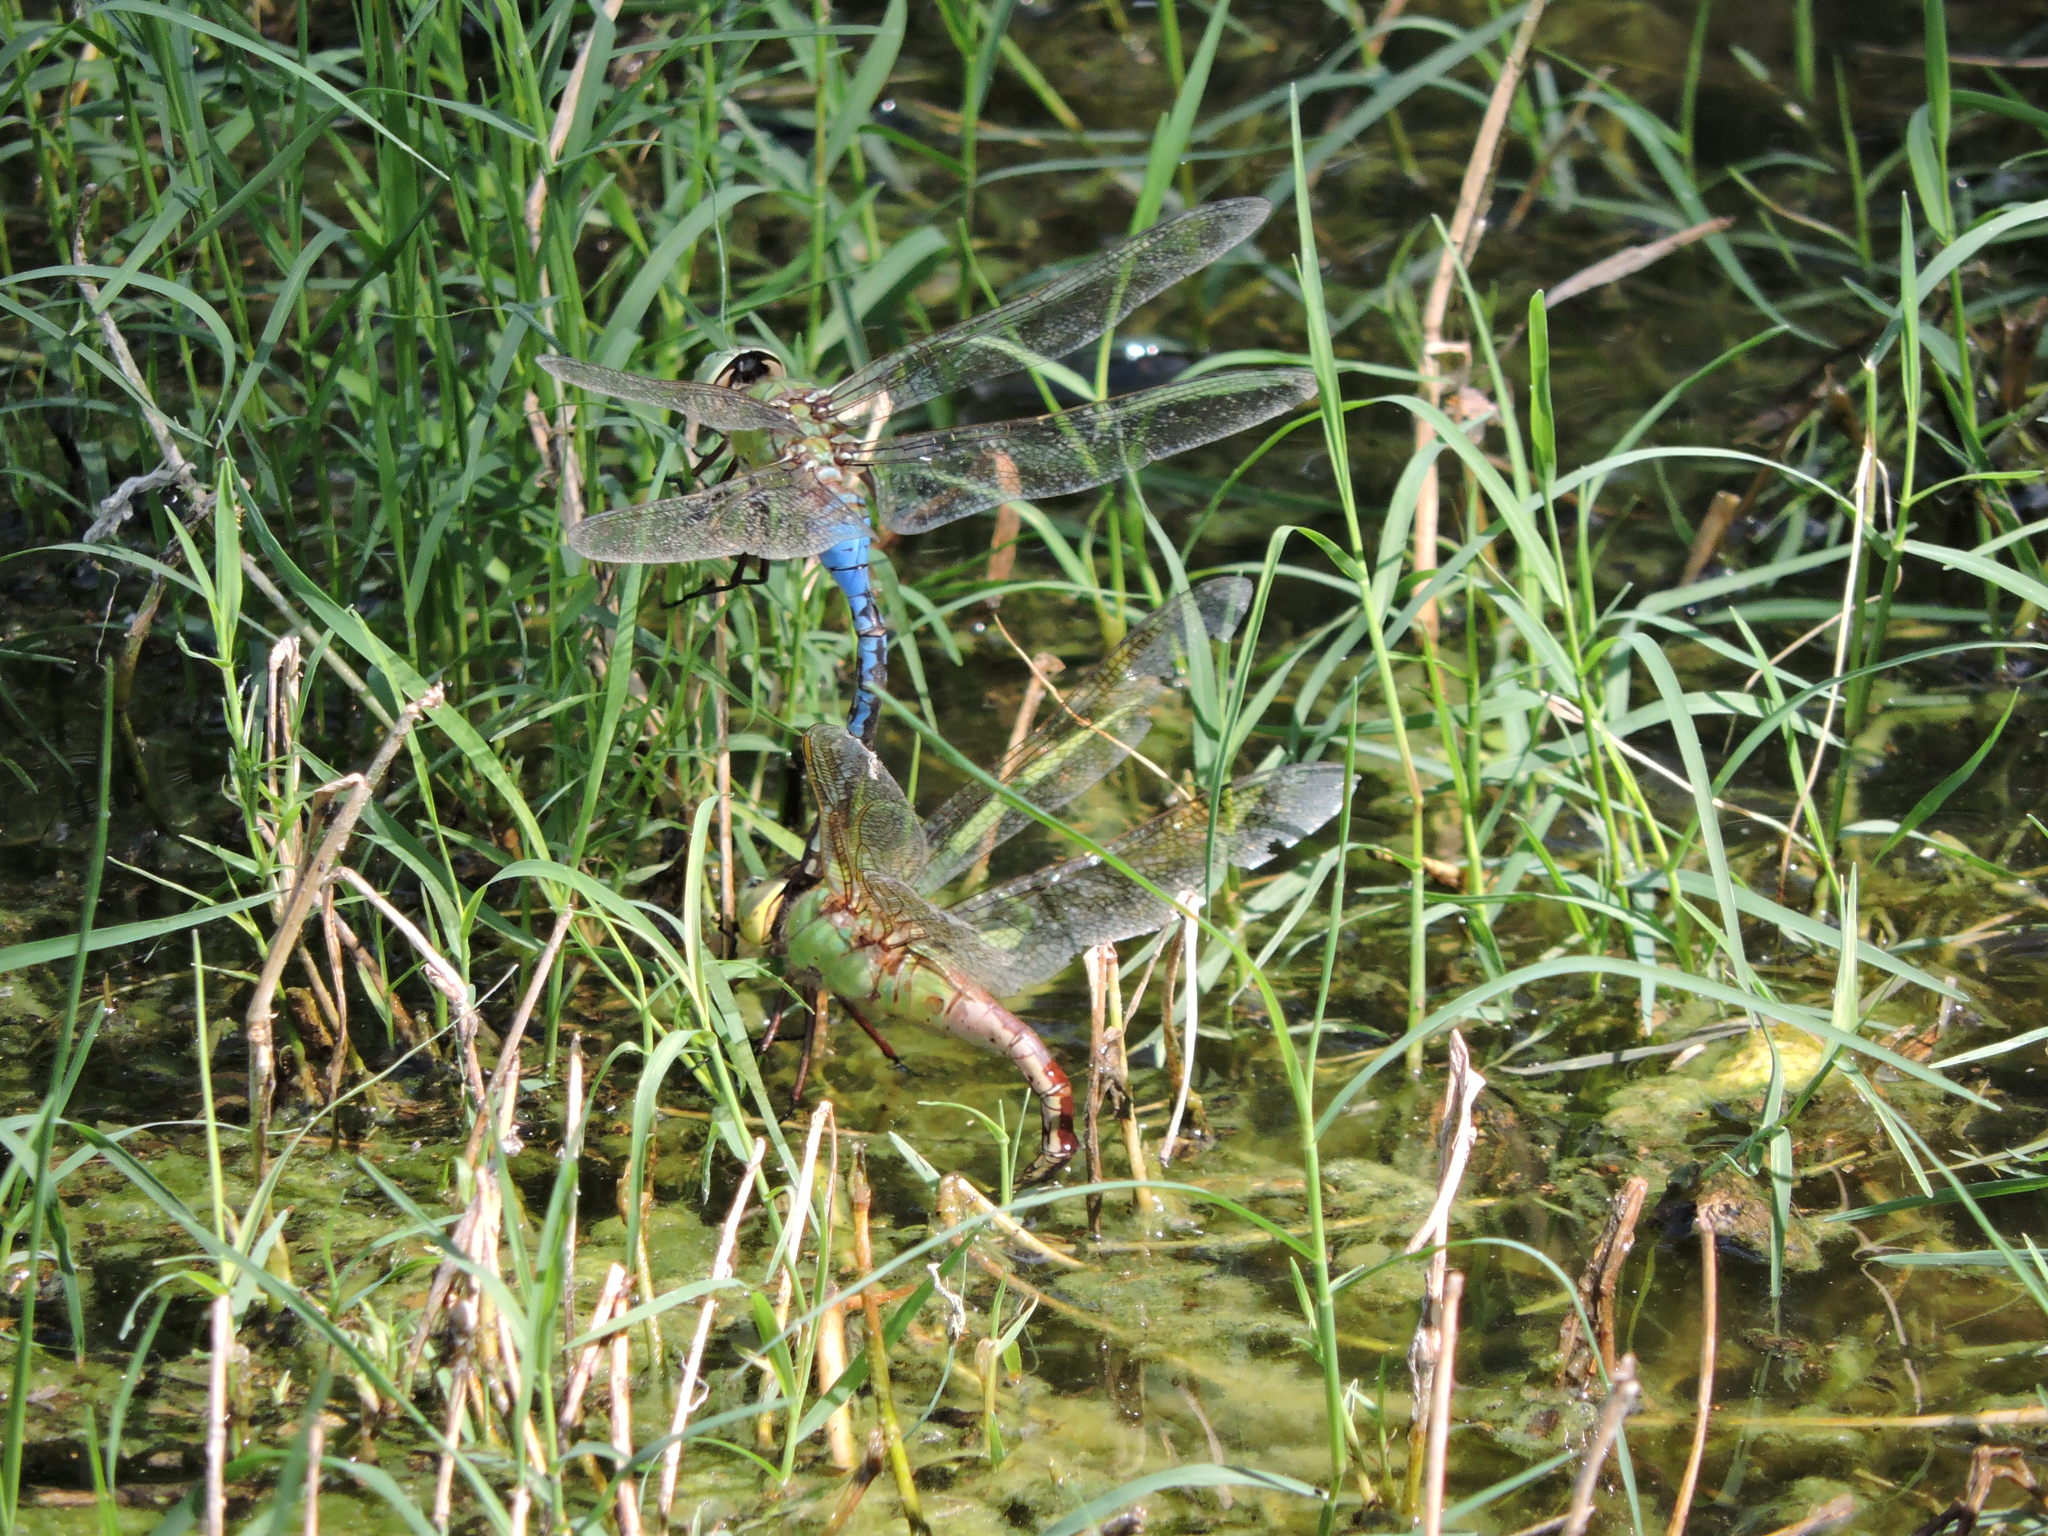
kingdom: Animalia
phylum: Arthropoda
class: Insecta
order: Odonata
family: Aeshnidae
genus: Anax
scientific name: Anax junius
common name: Common green darner
